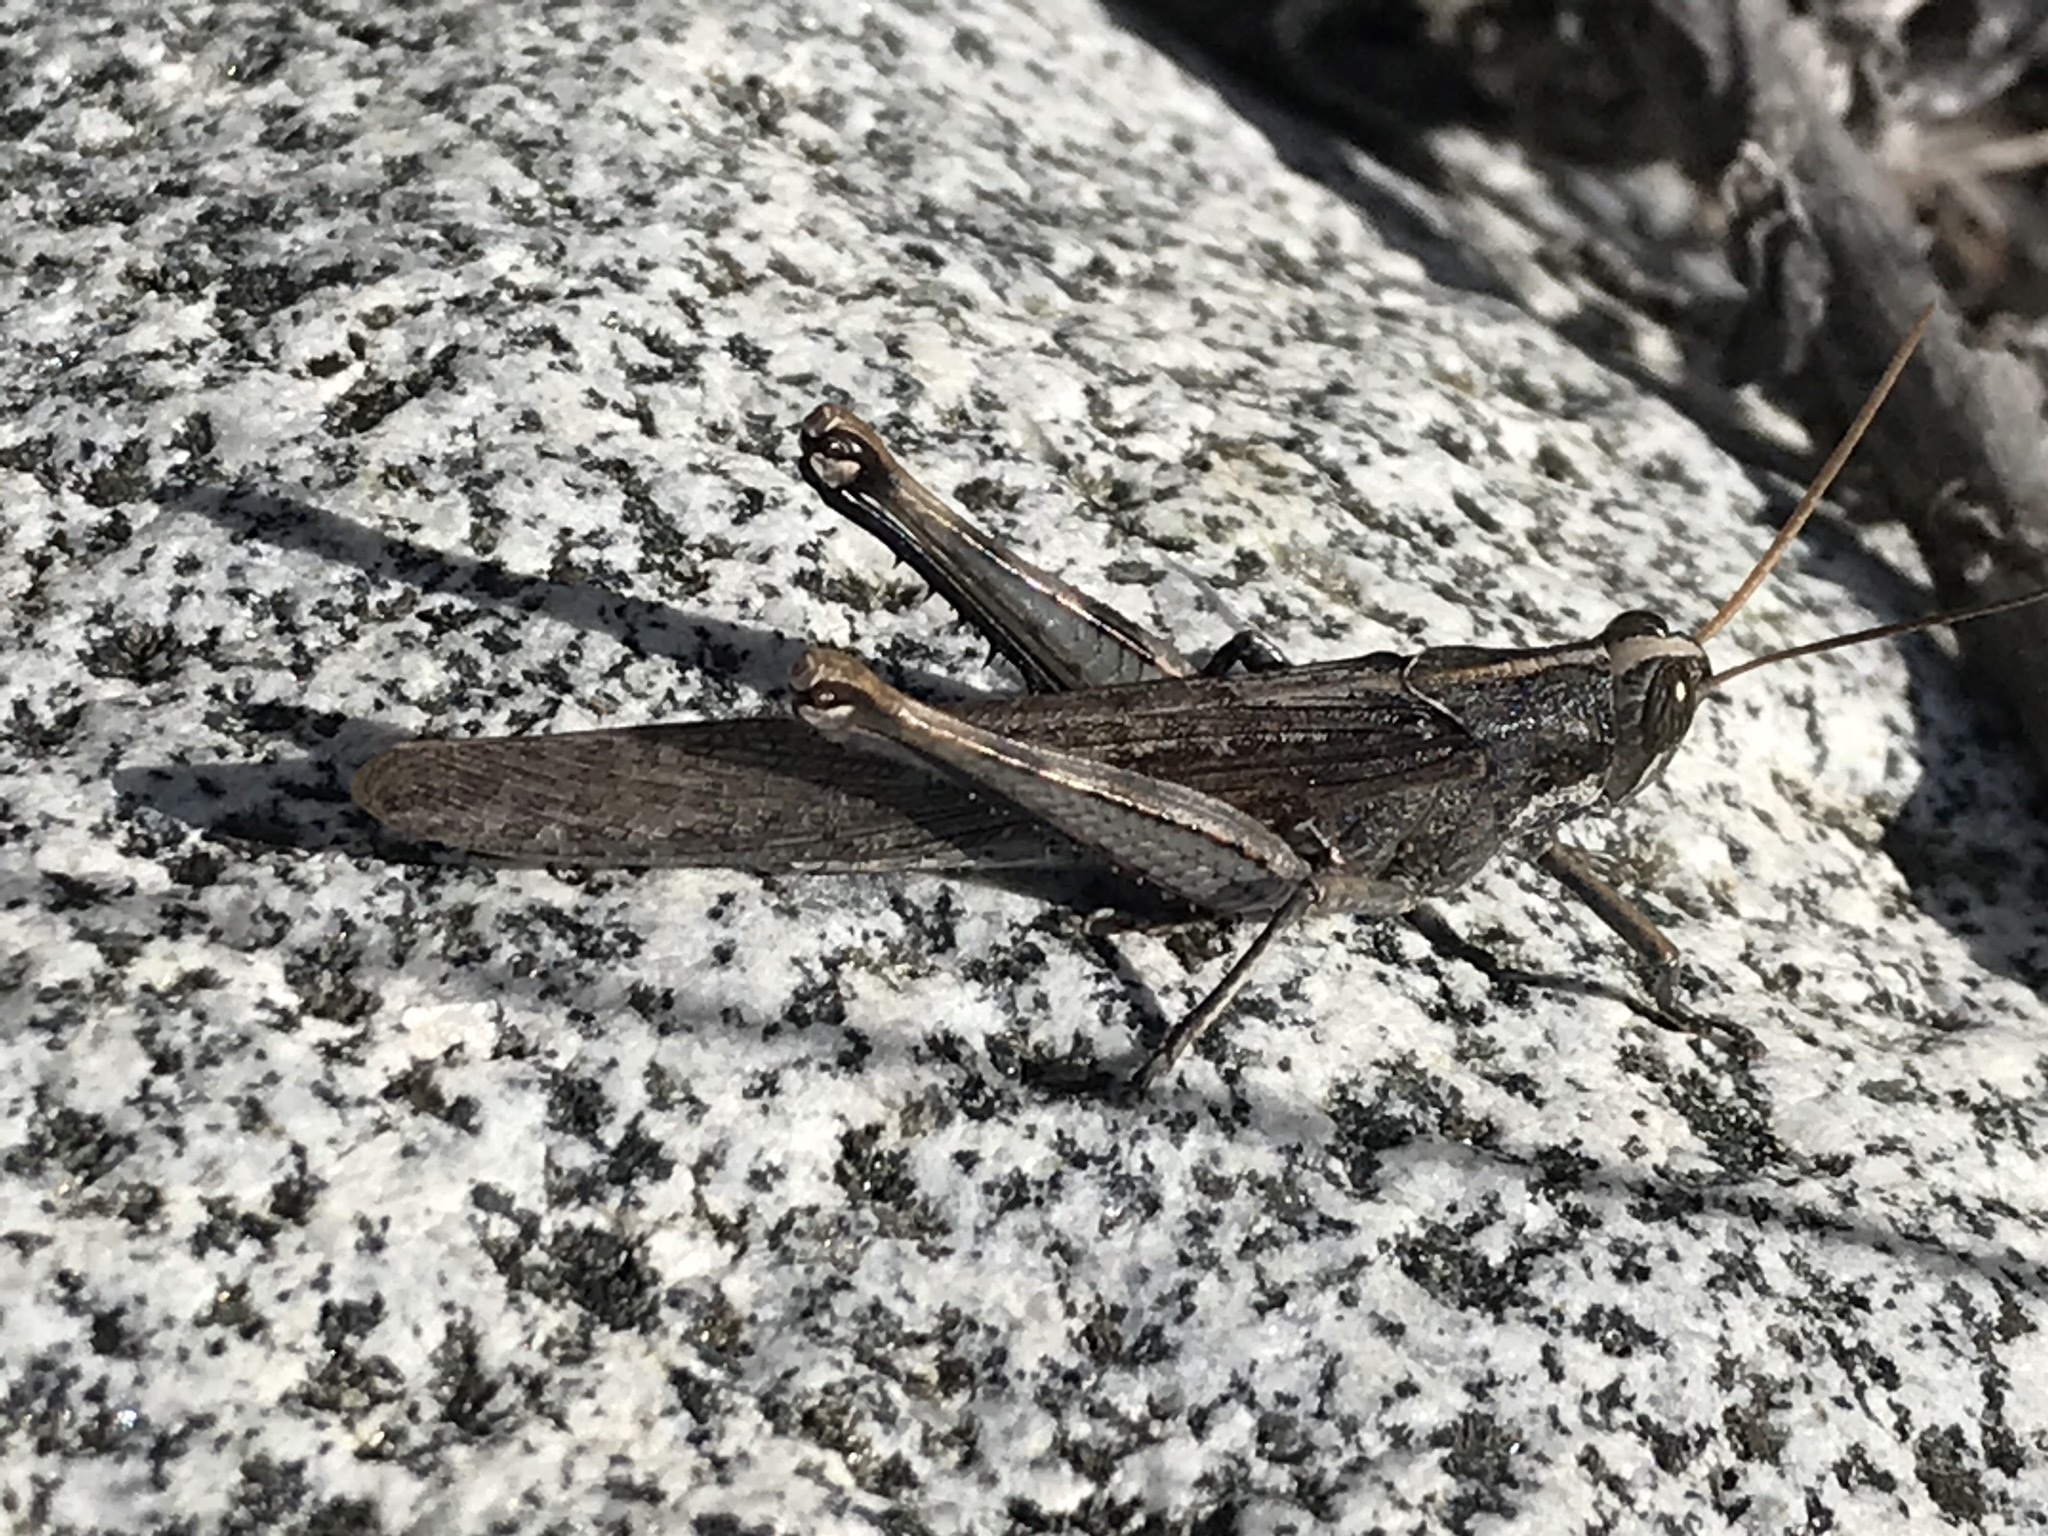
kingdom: Animalia
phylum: Arthropoda
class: Insecta
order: Orthoptera
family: Acrididae
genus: Schistocerca
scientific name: Schistocerca nitens
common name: Vagrant grasshopper
